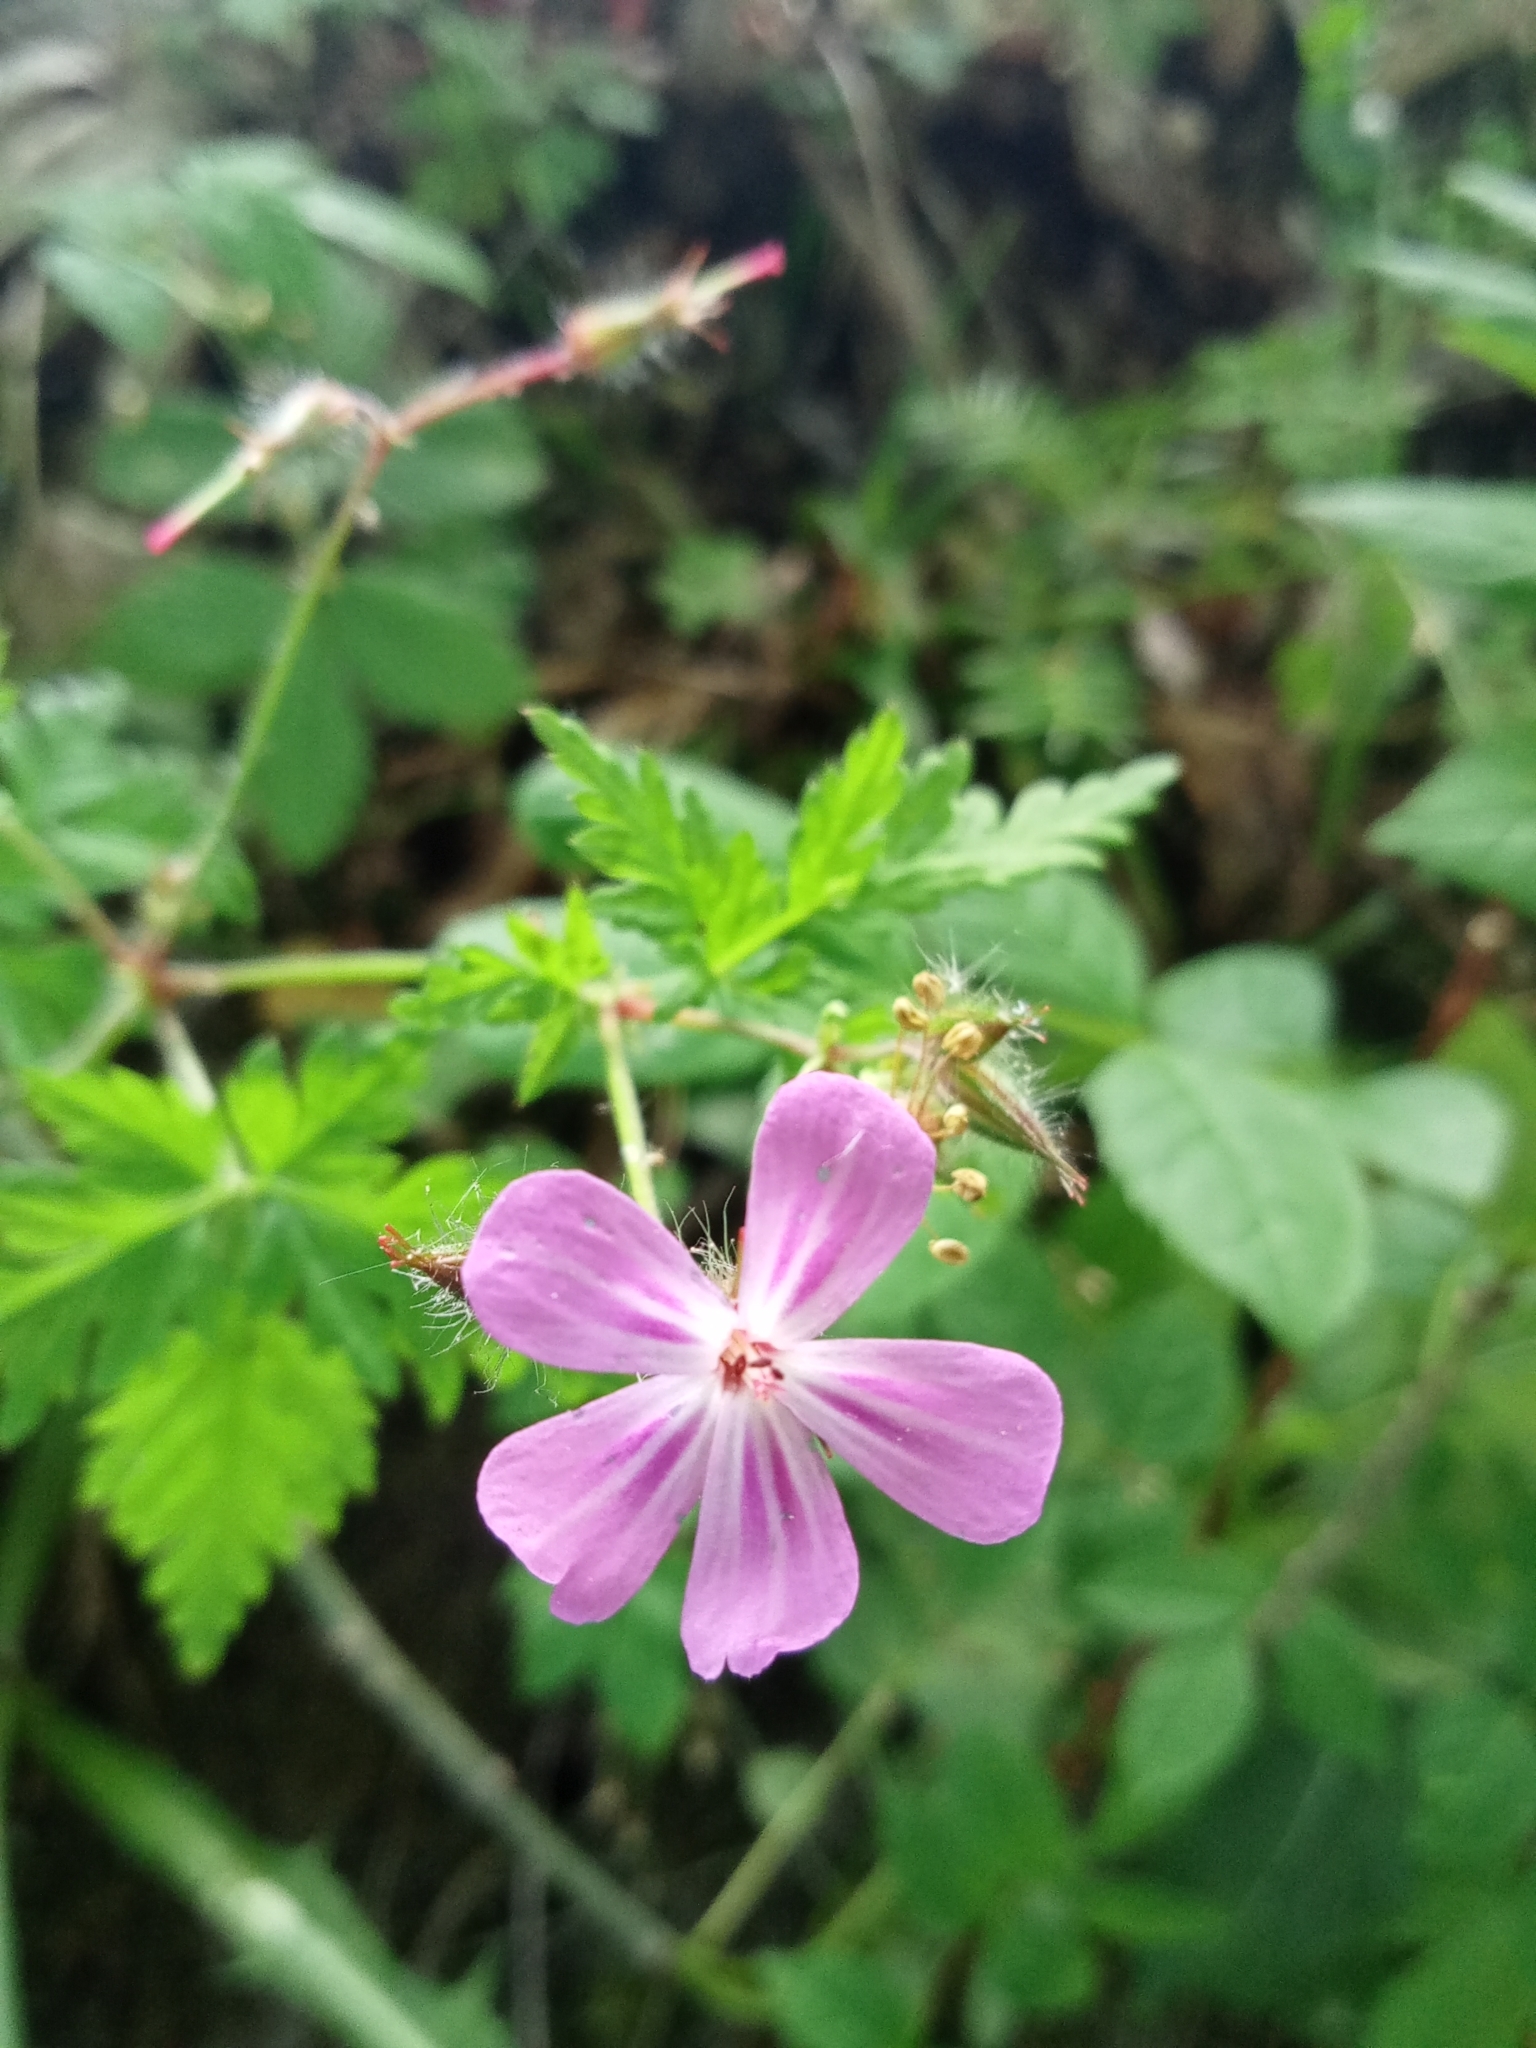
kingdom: Plantae
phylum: Tracheophyta
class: Magnoliopsida
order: Geraniales
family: Geraniaceae
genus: Geranium
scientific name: Geranium robertianum
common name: Herb-robert
